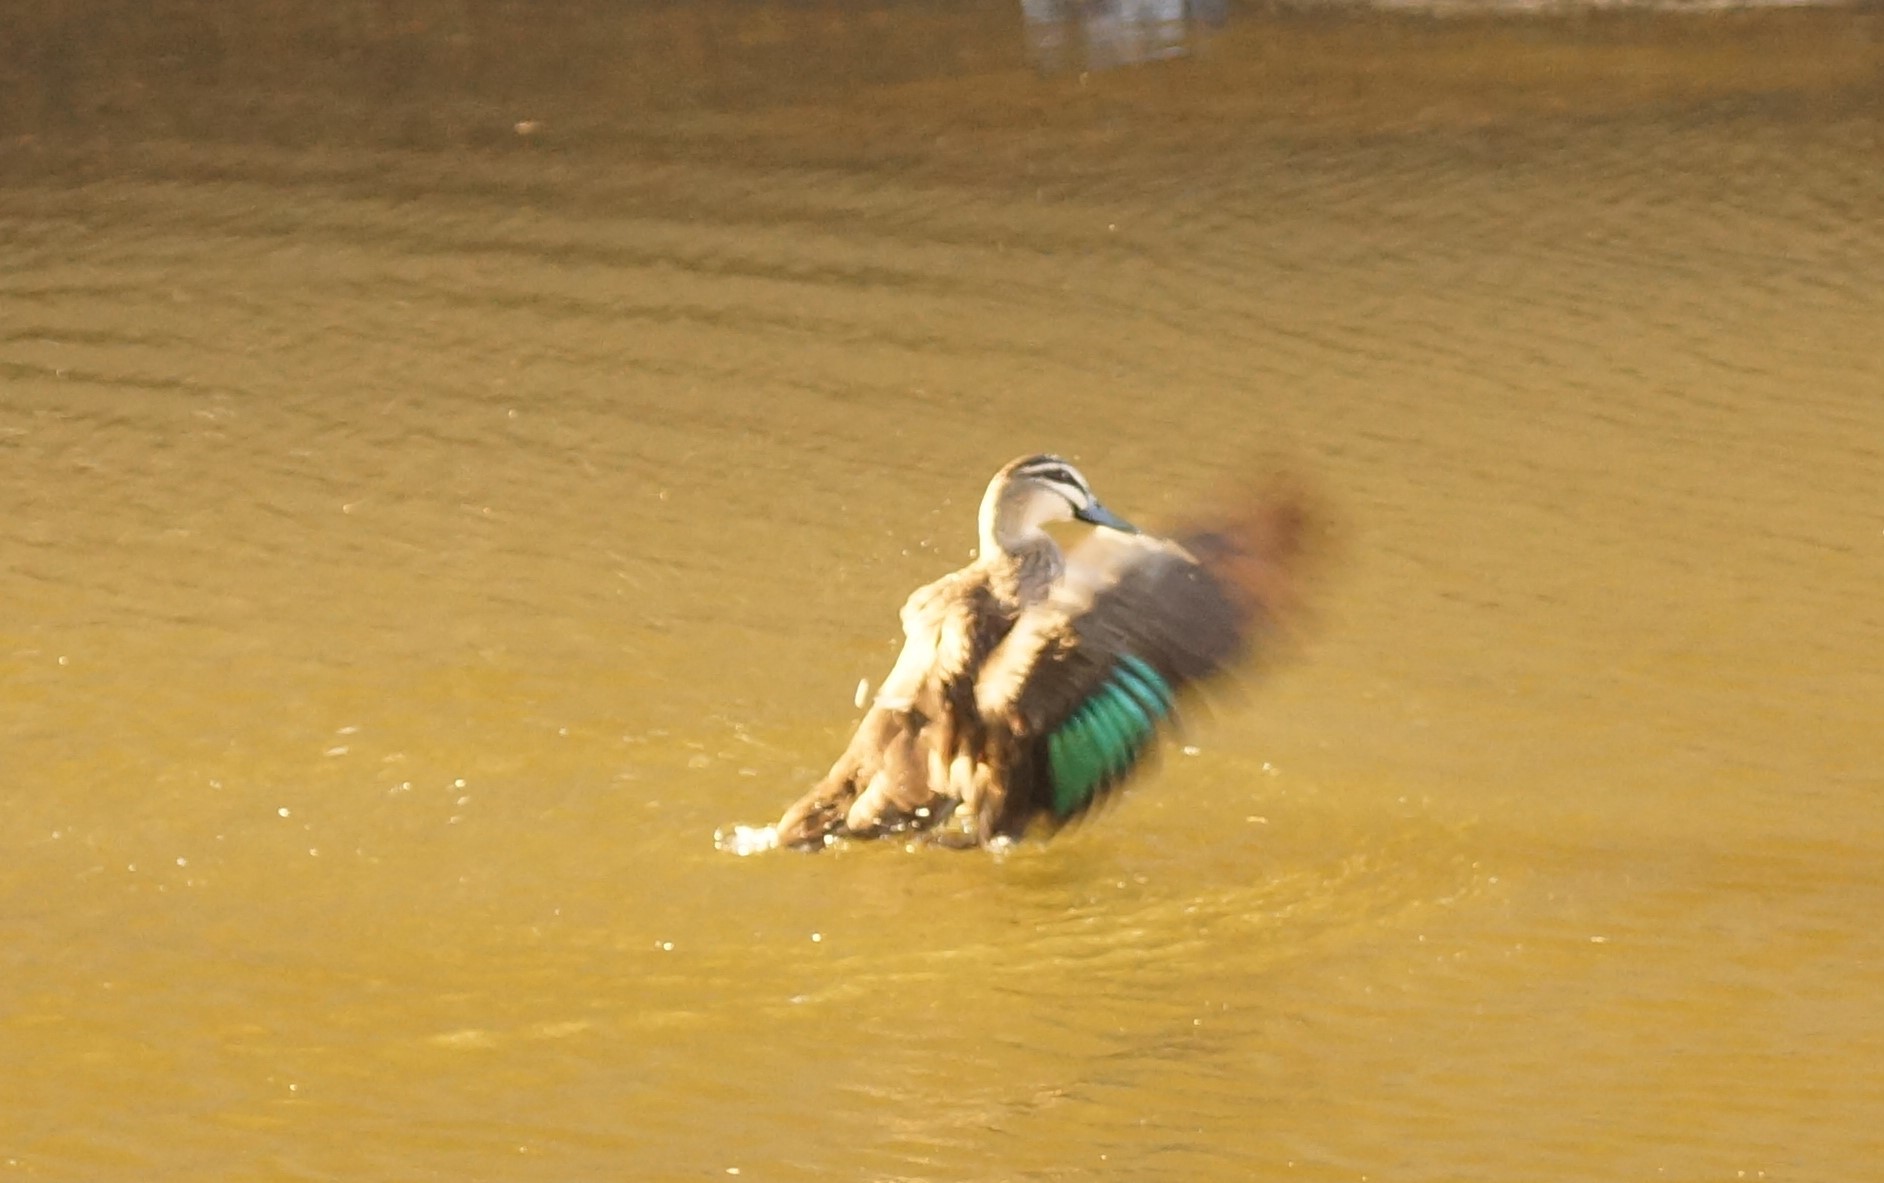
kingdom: Animalia
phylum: Chordata
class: Aves
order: Anseriformes
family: Anatidae
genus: Anas
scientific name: Anas superciliosa
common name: Pacific black duck
